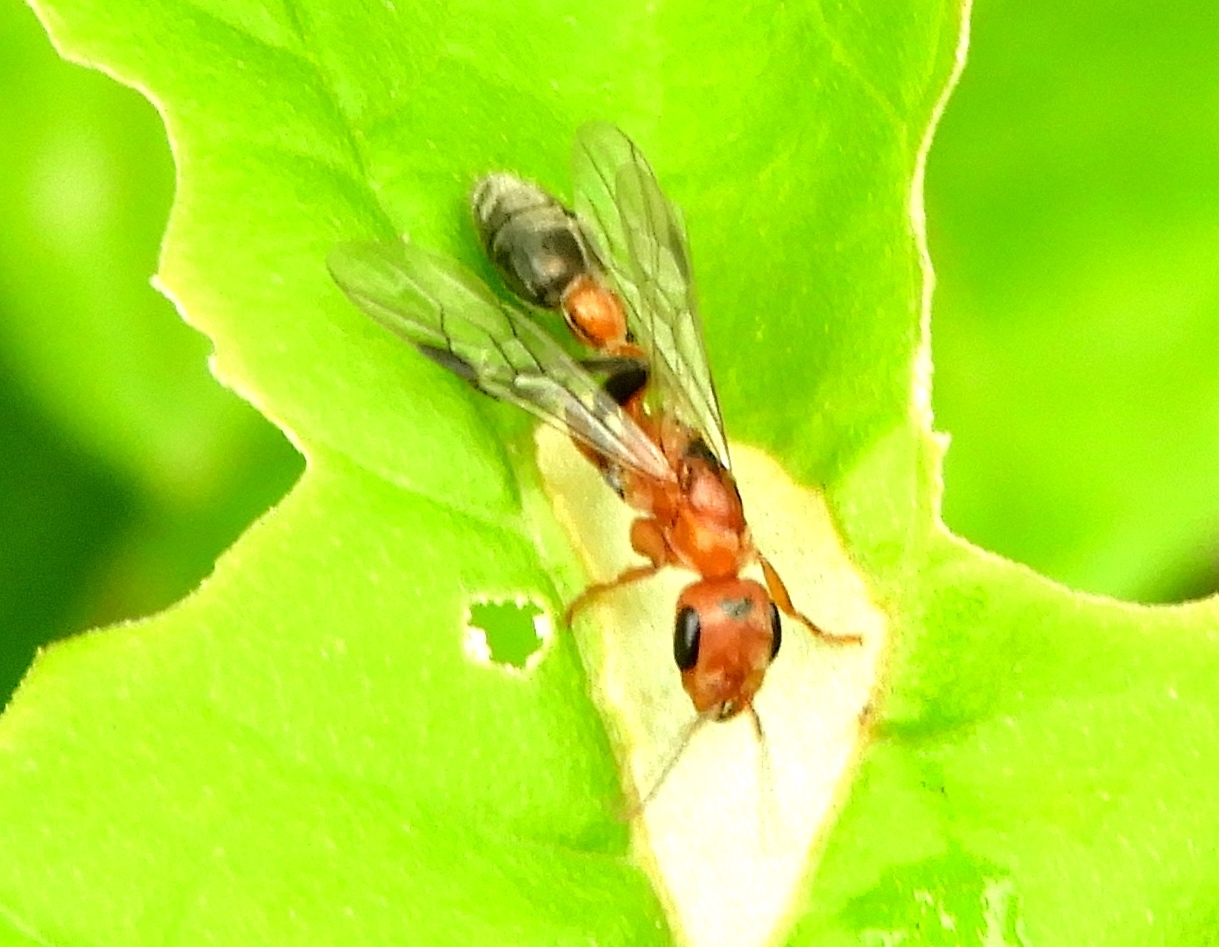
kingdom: Animalia
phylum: Arthropoda
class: Insecta
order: Hymenoptera
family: Formicidae
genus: Pseudomyrmex
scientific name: Pseudomyrmex gracilis
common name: Graceful twig ant
